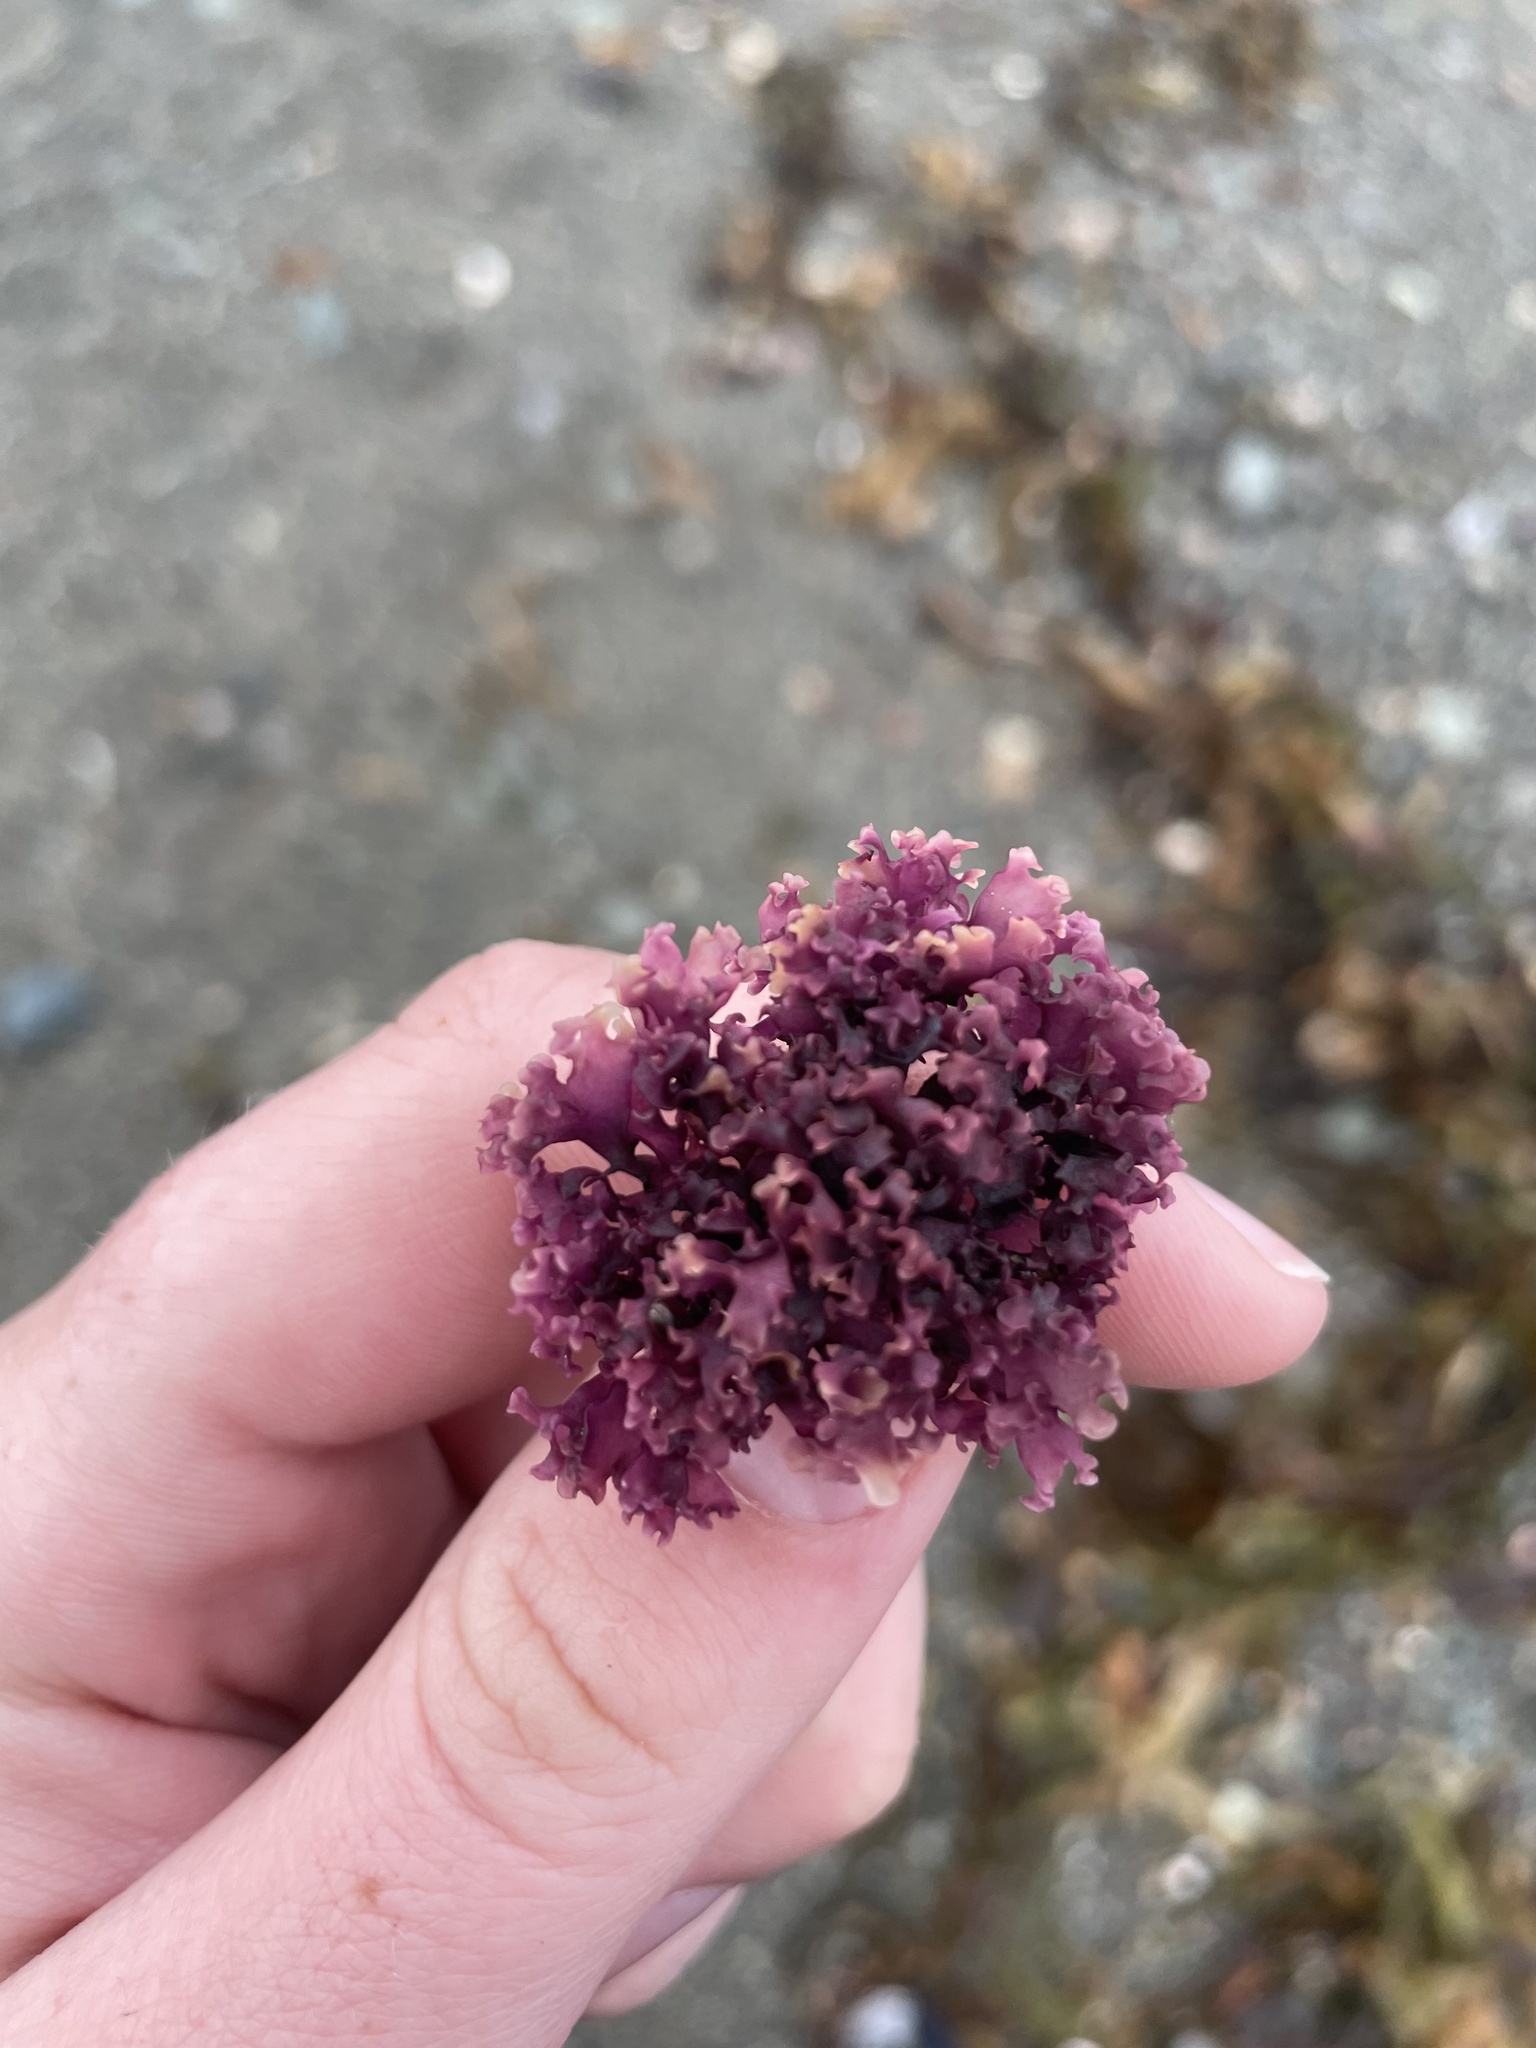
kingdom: Plantae
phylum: Rhodophyta
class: Florideophyceae
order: Gigartinales
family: Gigartinaceae
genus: Chondrus
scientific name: Chondrus crispus
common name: Carrageen
